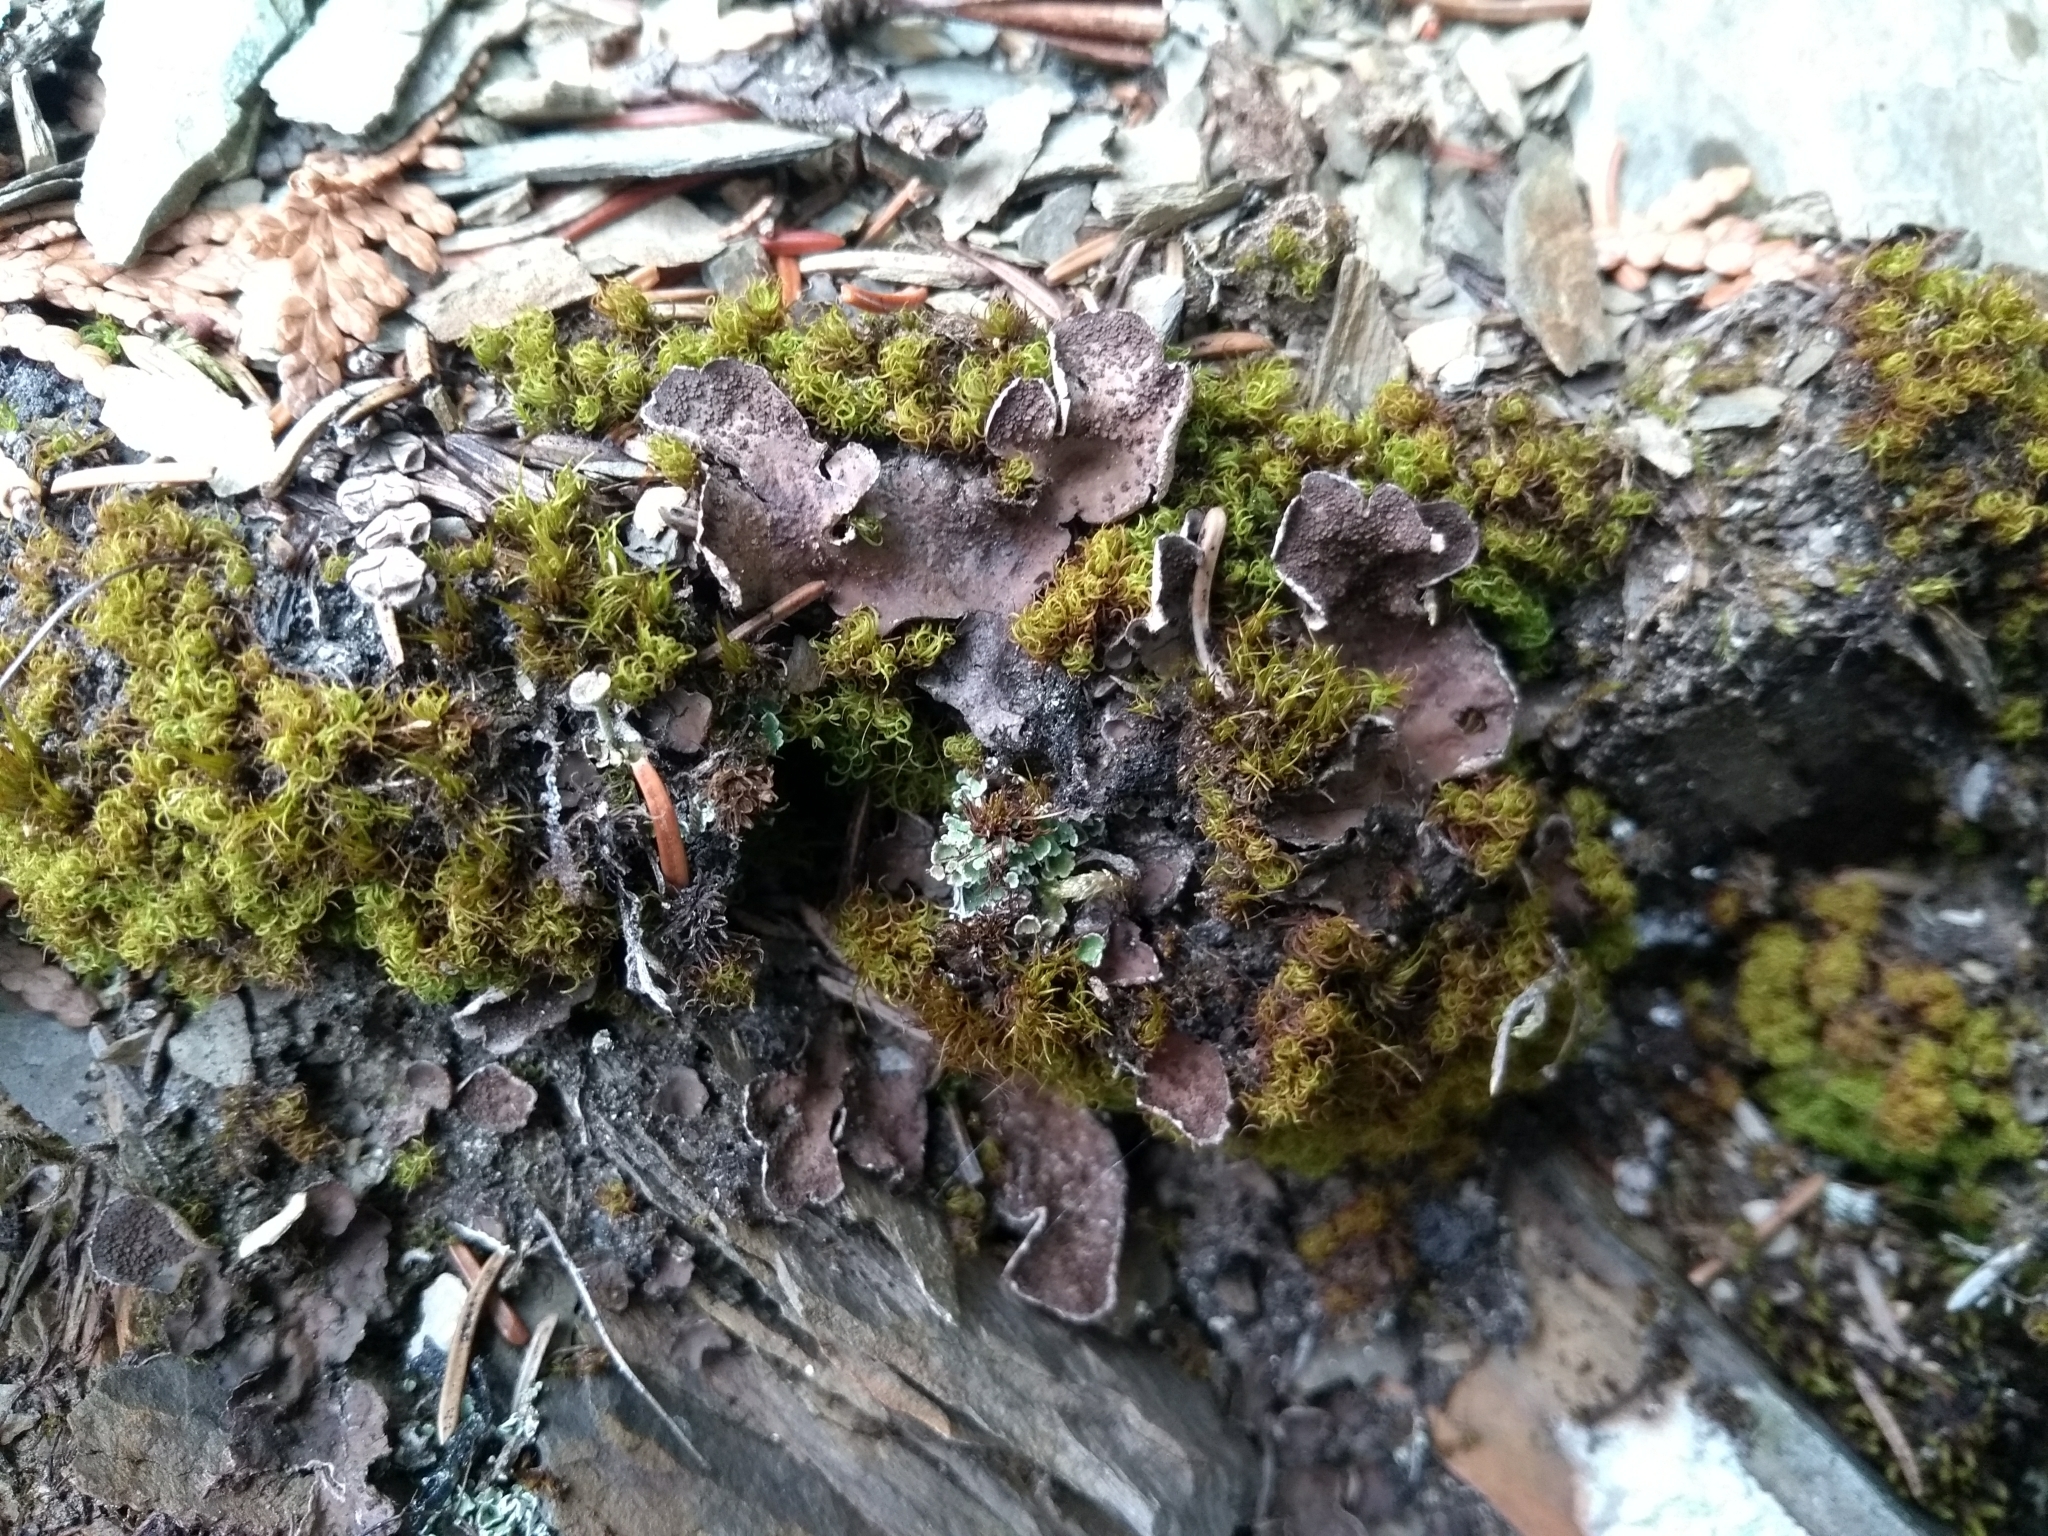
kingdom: Fungi
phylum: Ascomycota
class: Lecanoromycetes
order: Peltigerales
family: Peltigeraceae
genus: Peltigera
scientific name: Peltigera lepidophora
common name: Ear-lobed dog-lichen
